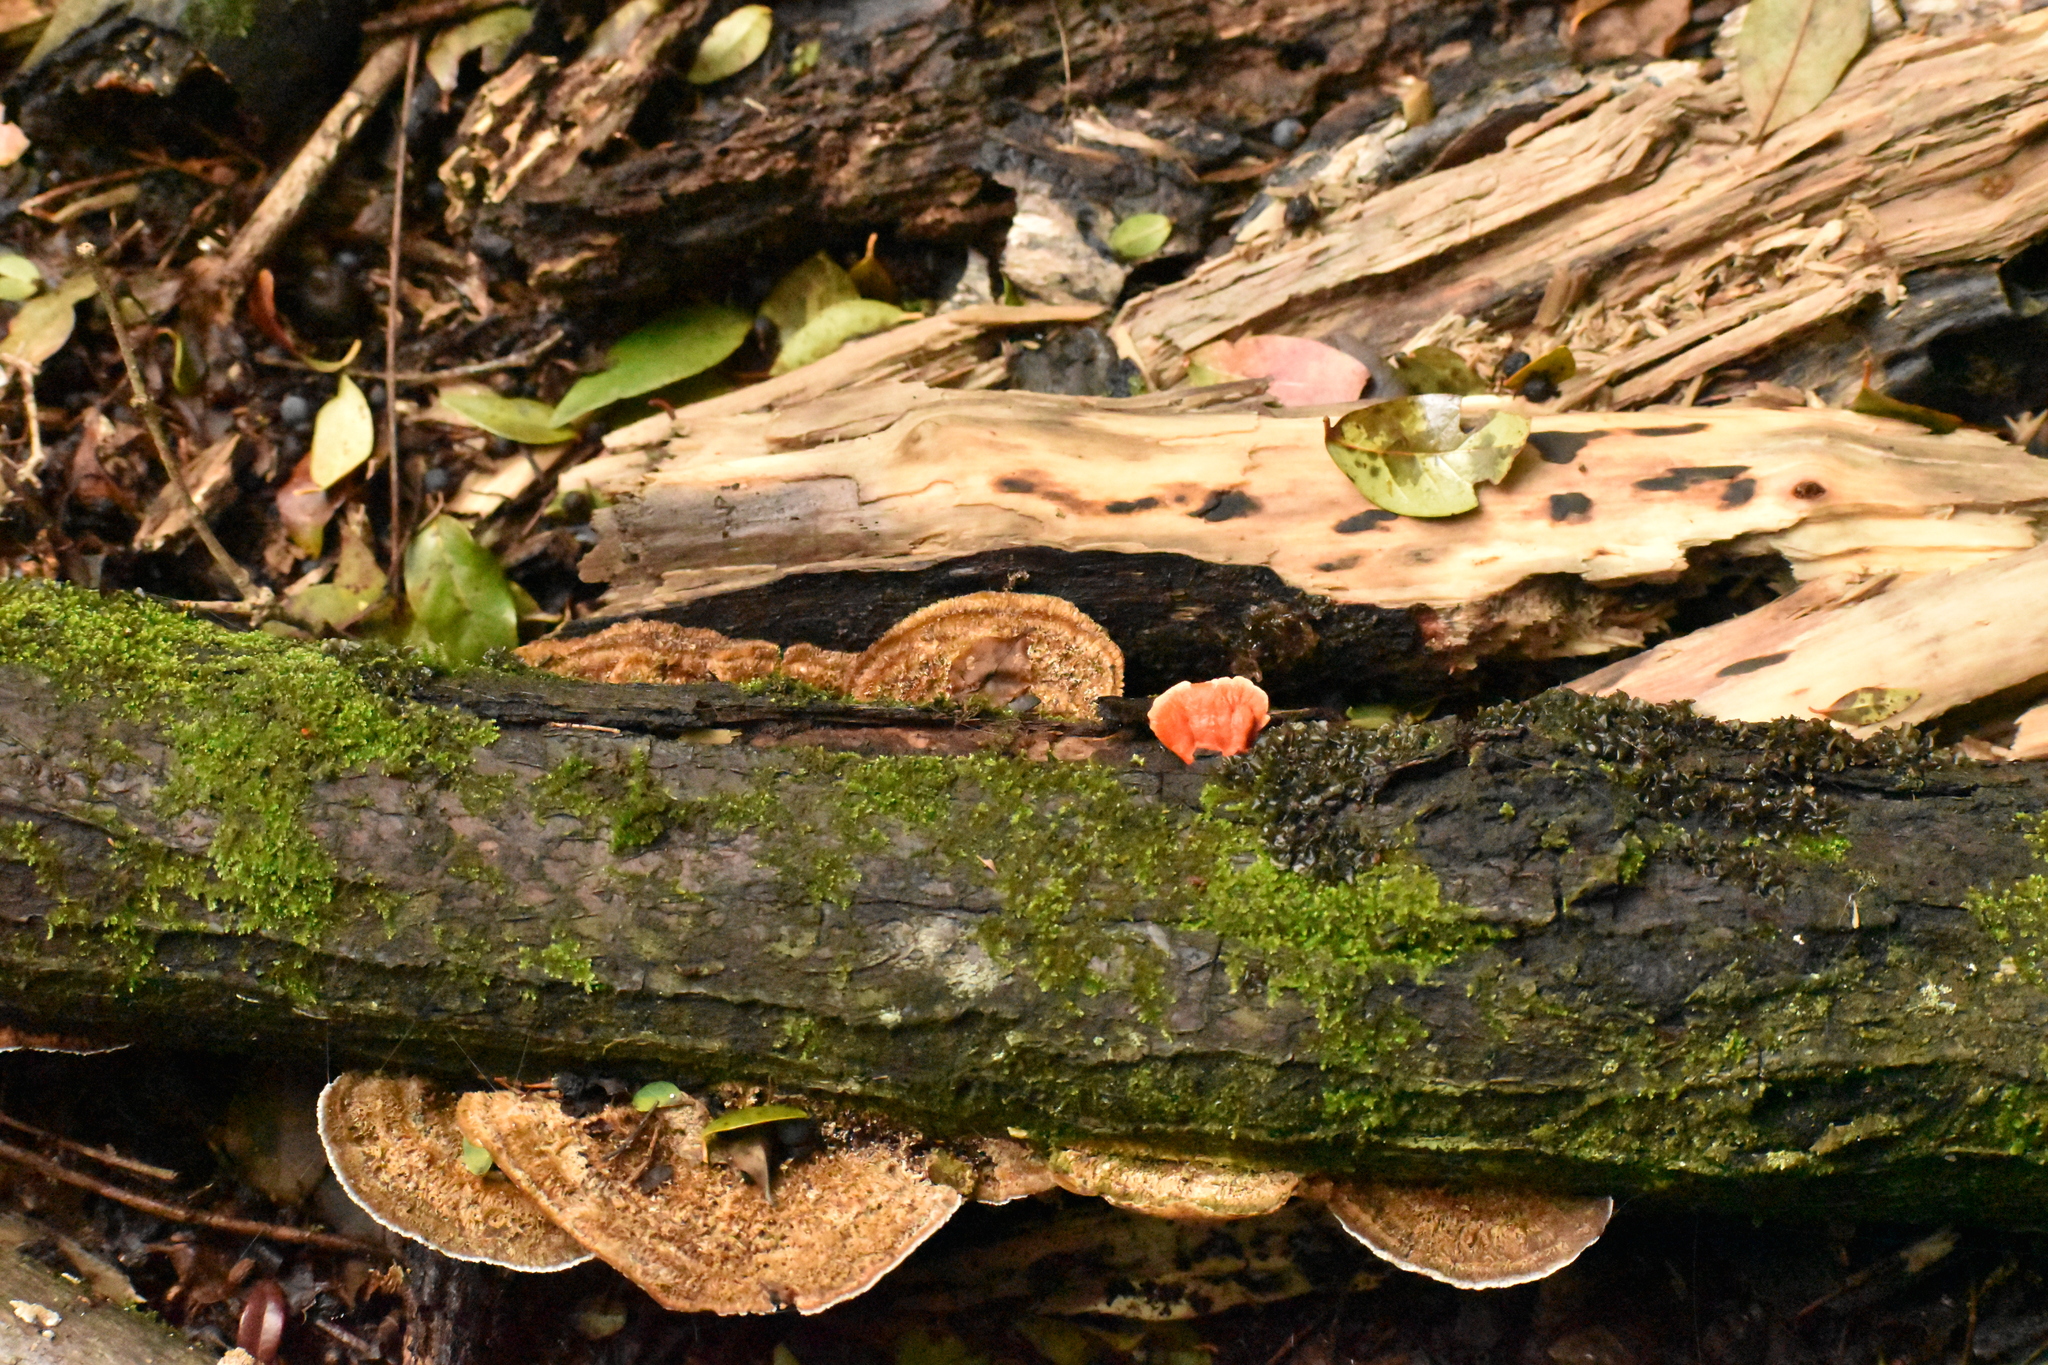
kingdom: Fungi
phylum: Basidiomycota
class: Agaricomycetes
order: Polyporales
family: Polyporaceae
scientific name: Polyporaceae
